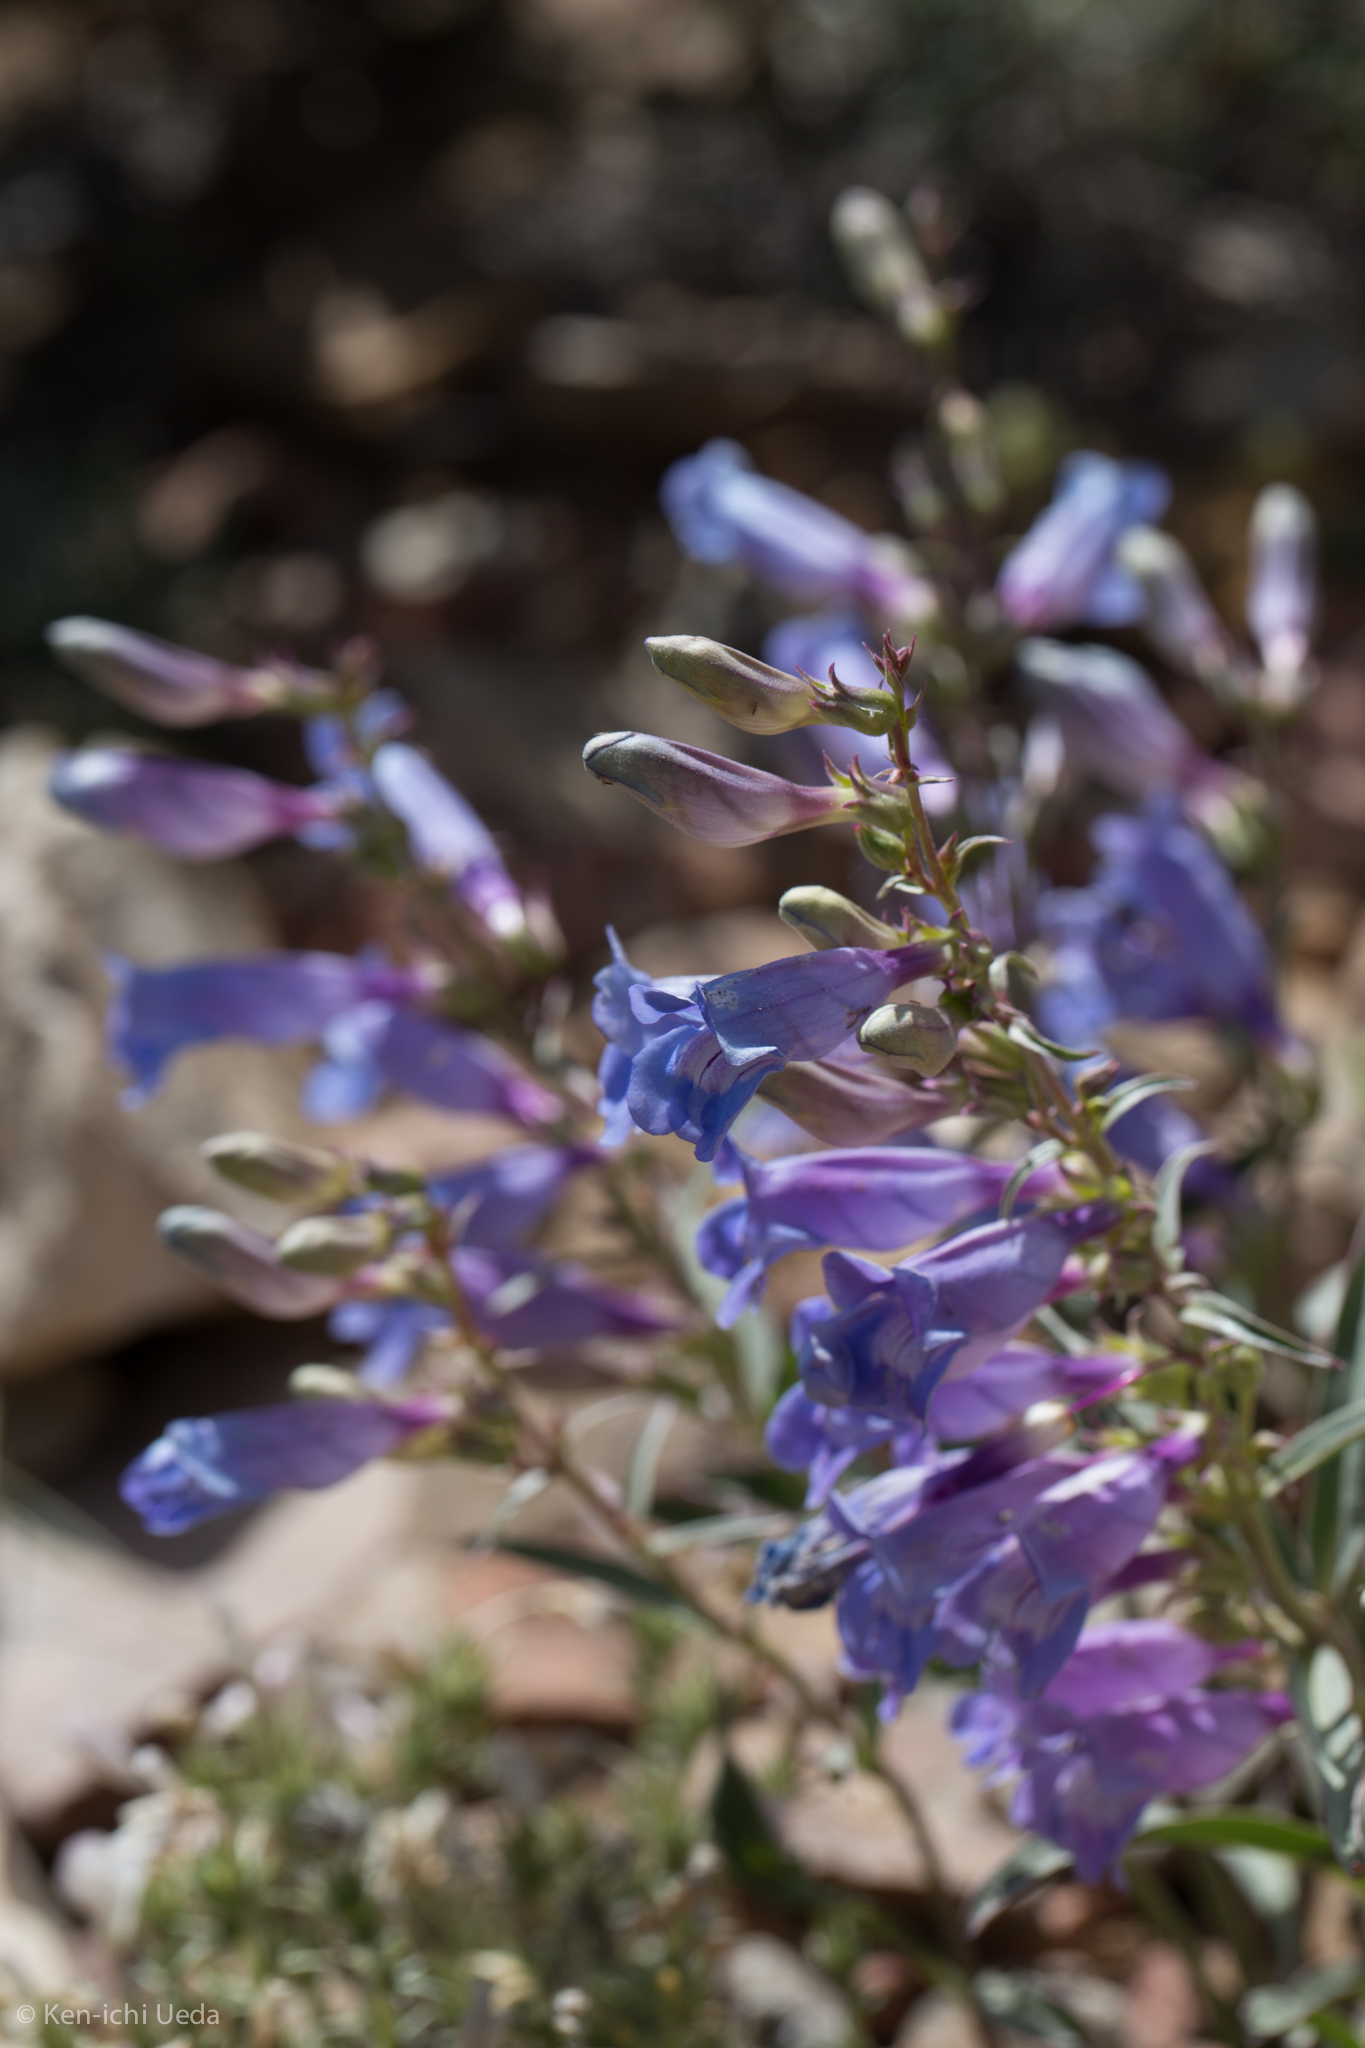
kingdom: Plantae
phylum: Tracheophyta
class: Magnoliopsida
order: Lamiales
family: Plantaginaceae
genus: Penstemon
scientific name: Penstemon speciosus
